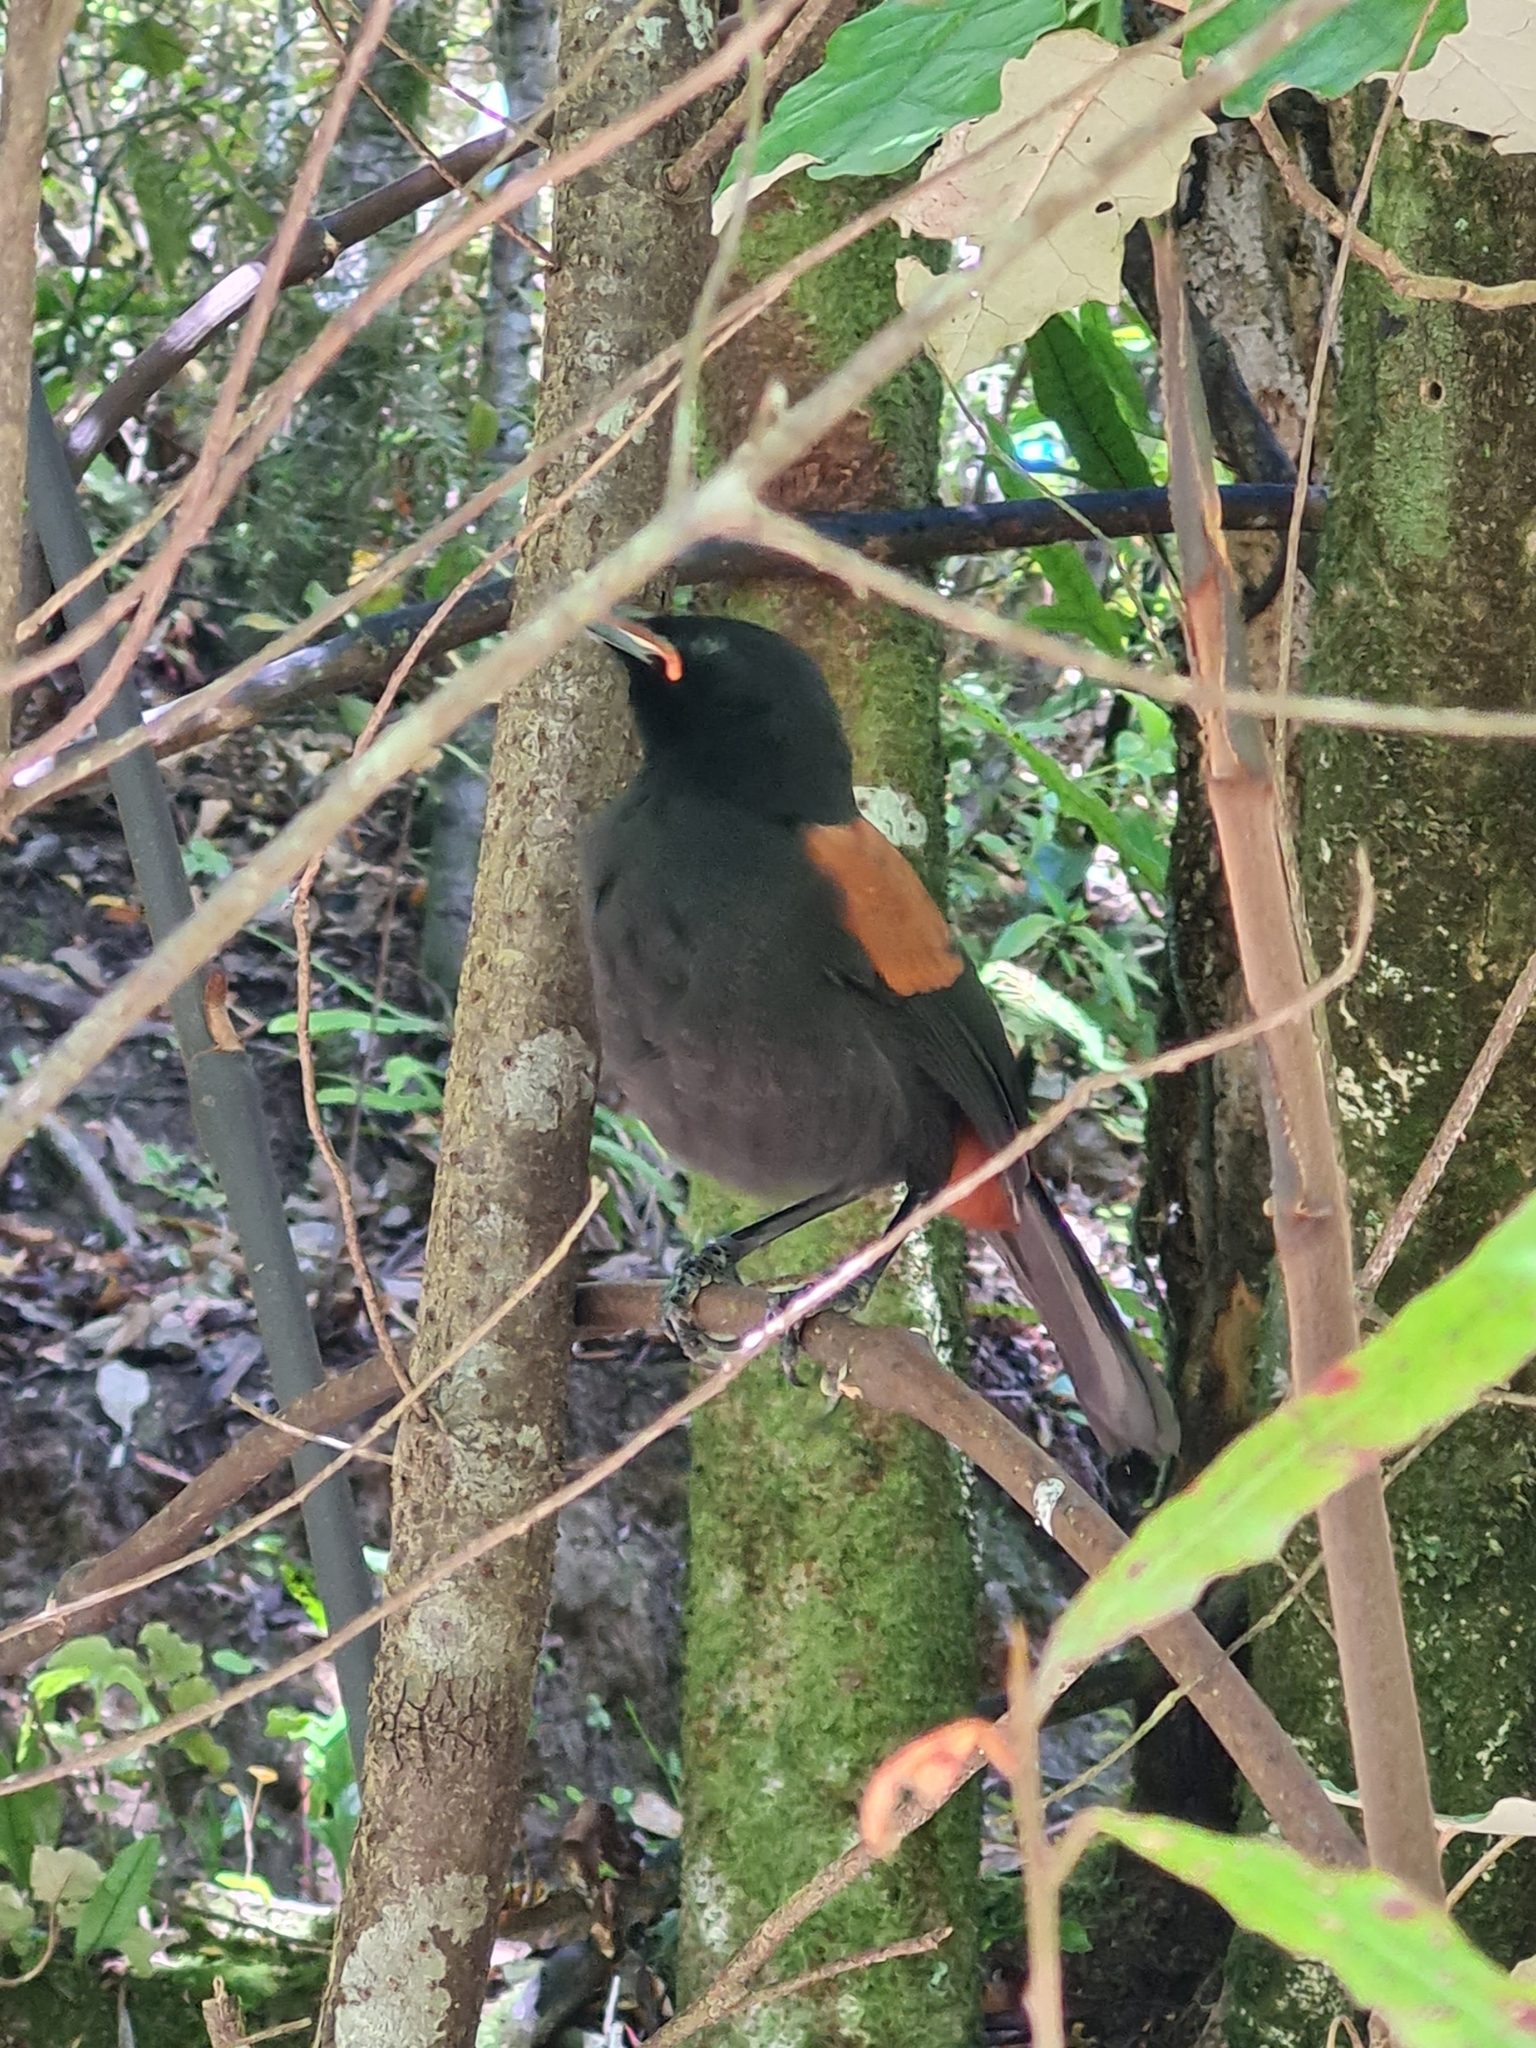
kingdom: Animalia
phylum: Chordata
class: Aves
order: Passeriformes
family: Callaeatidae
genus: Philesturnus
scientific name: Philesturnus carunculatus
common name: South island saddleback
